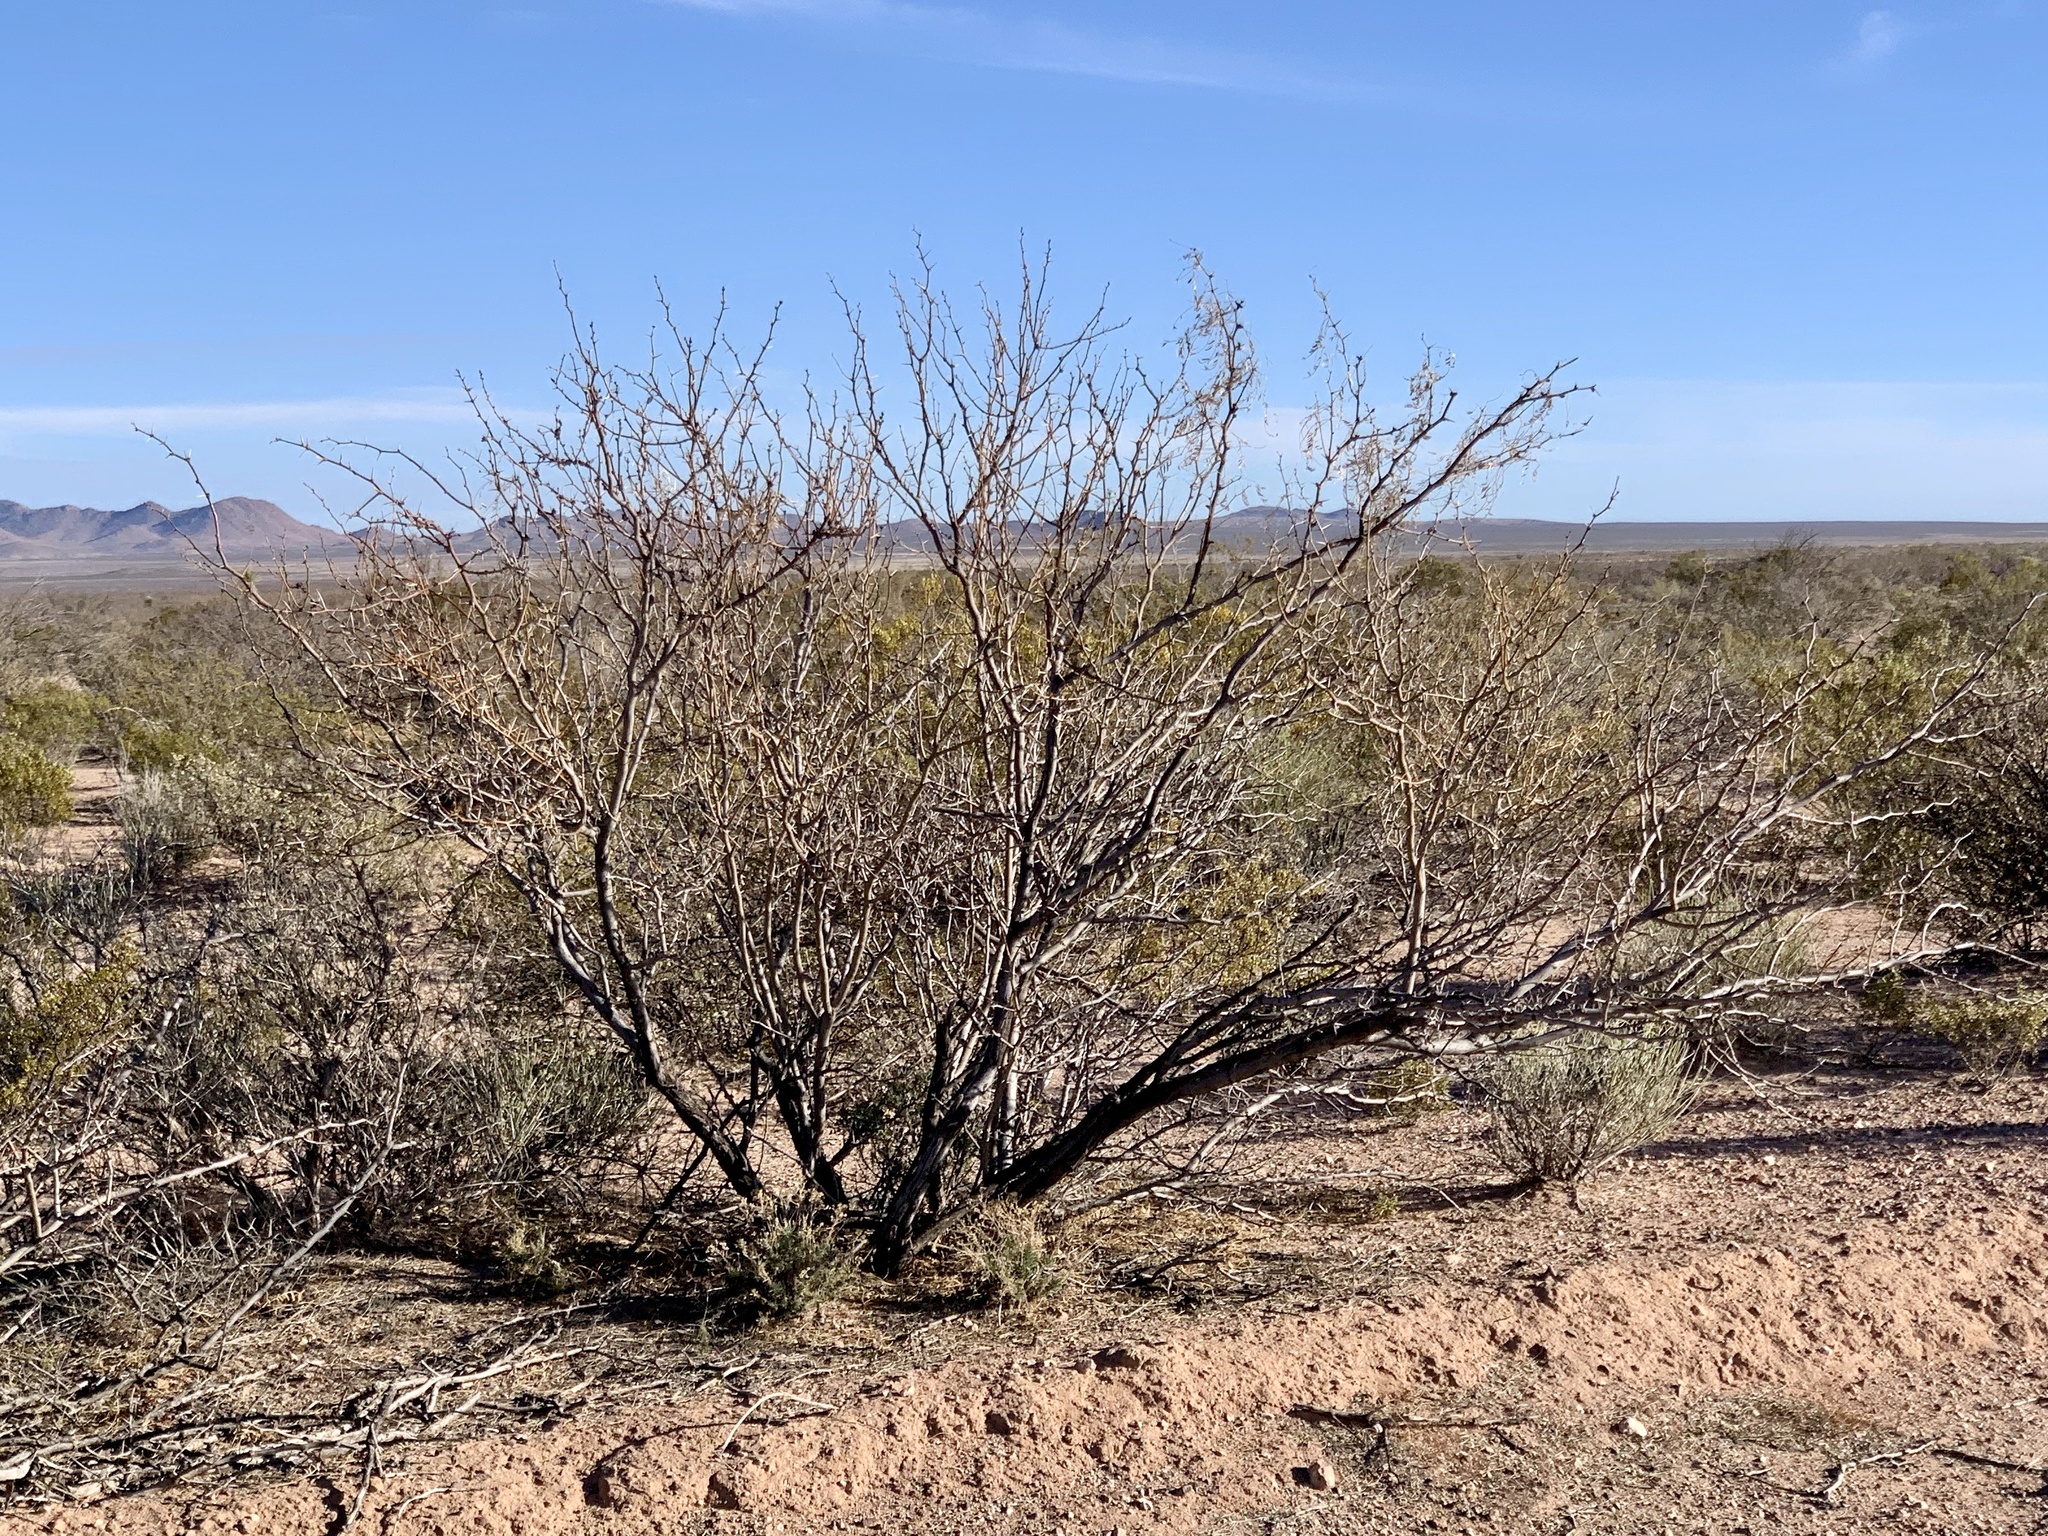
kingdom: Plantae
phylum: Tracheophyta
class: Magnoliopsida
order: Fabales
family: Fabaceae
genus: Prosopis
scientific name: Prosopis glandulosa
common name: Honey mesquite
